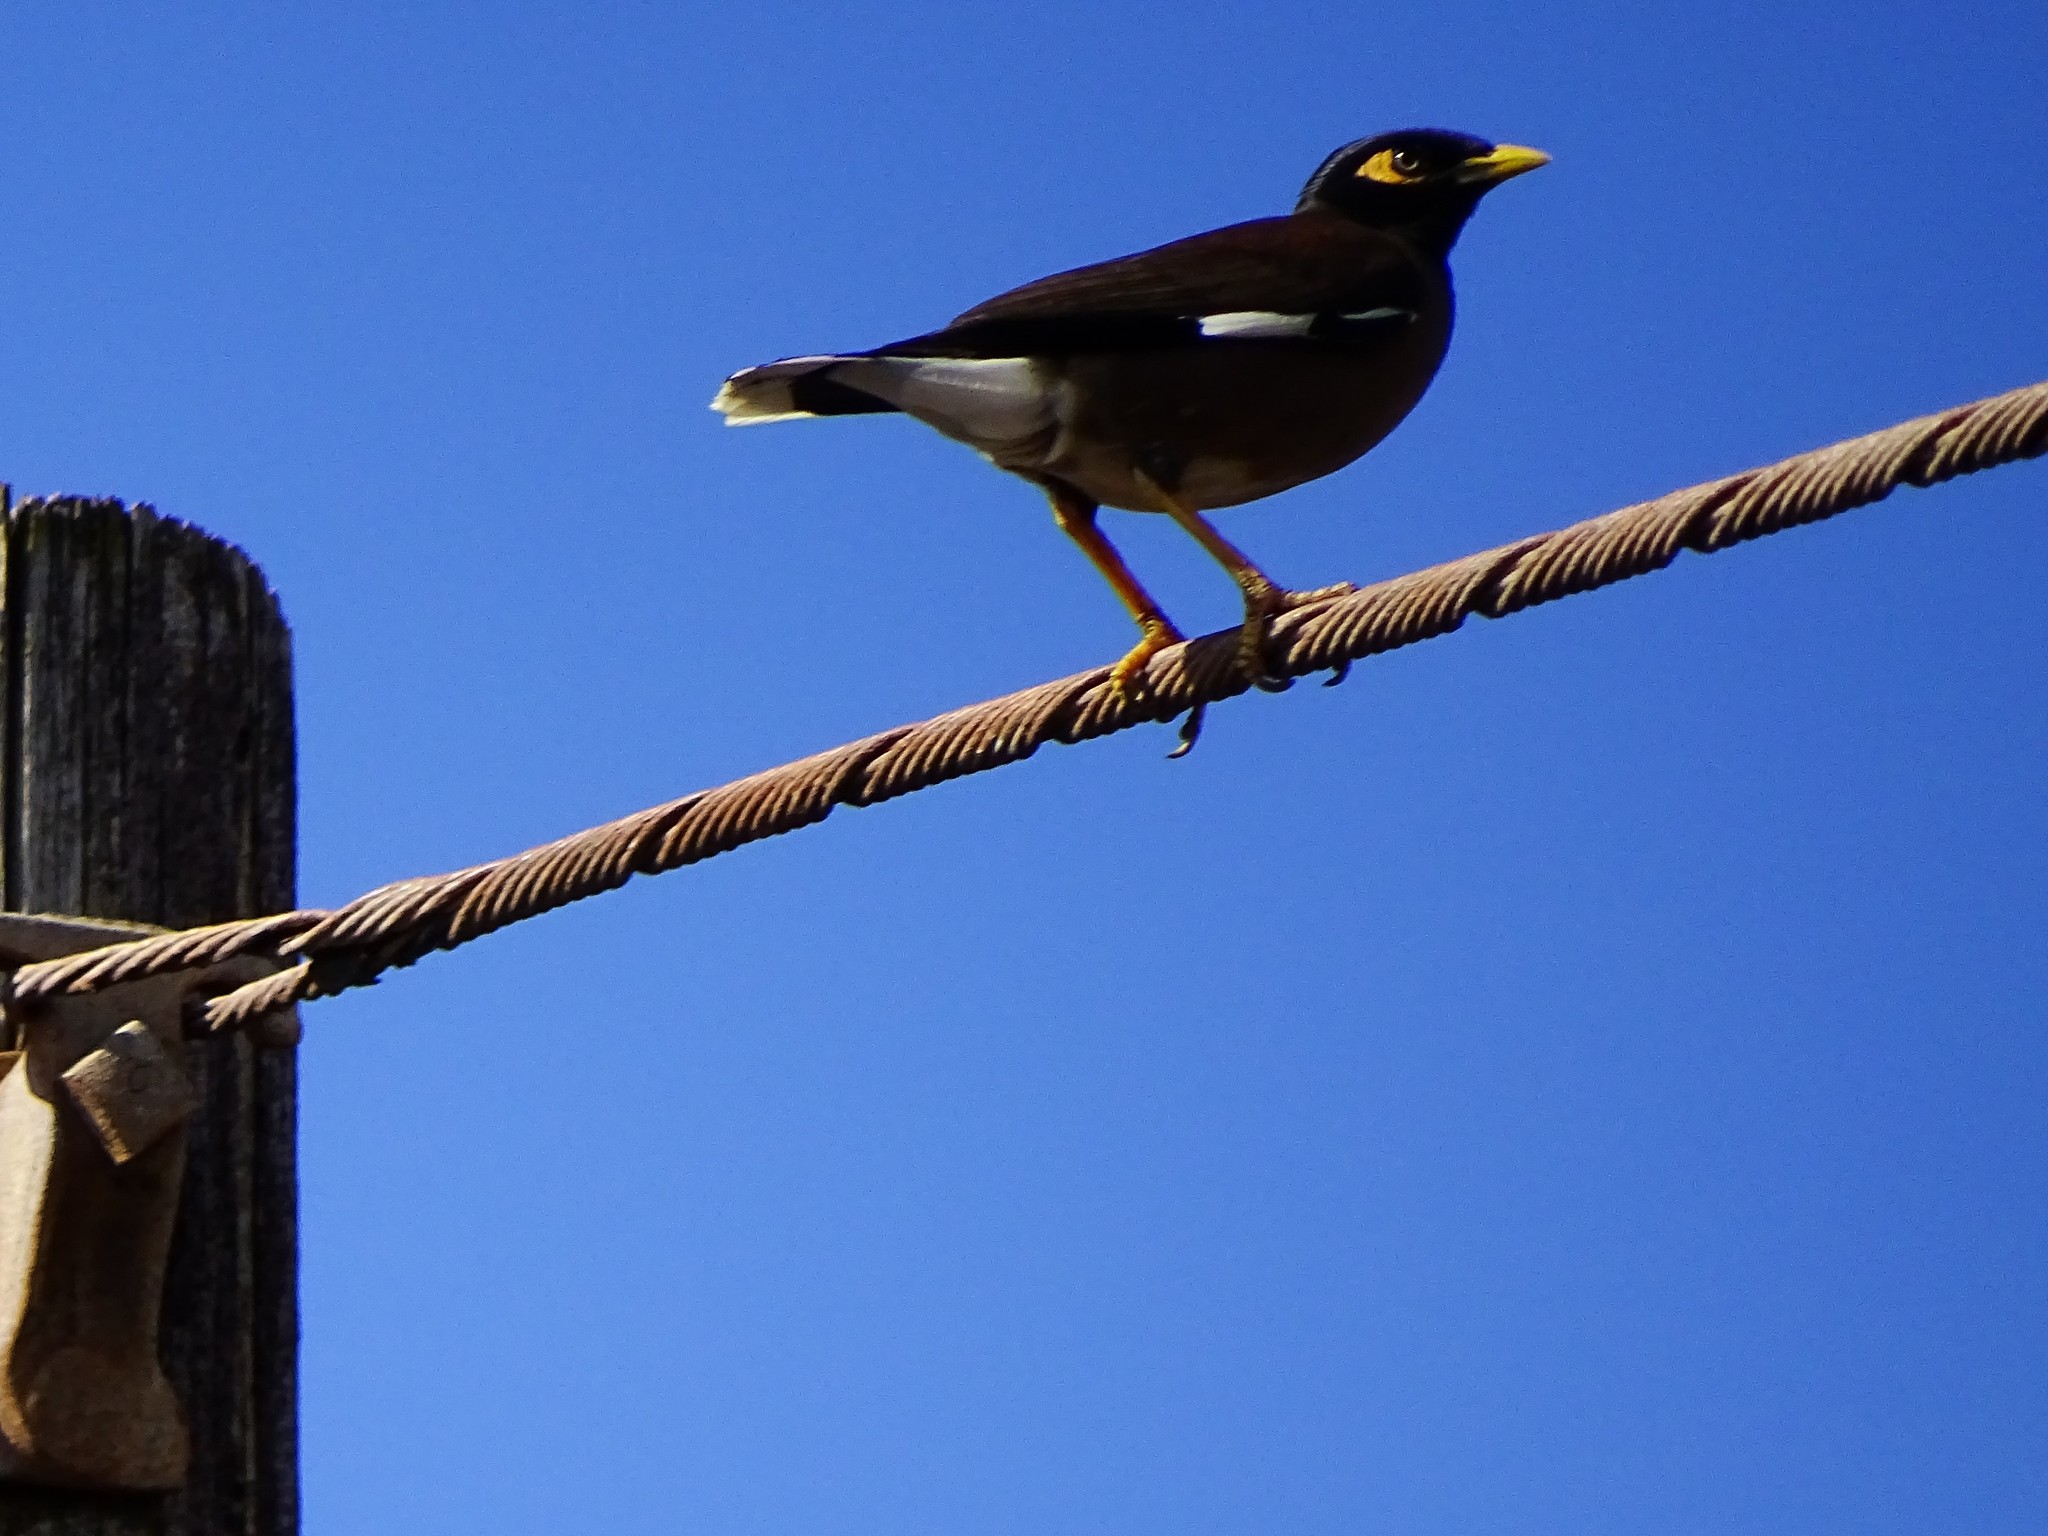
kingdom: Animalia
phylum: Chordata
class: Aves
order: Passeriformes
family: Sturnidae
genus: Acridotheres
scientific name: Acridotheres tristis
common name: Common myna
